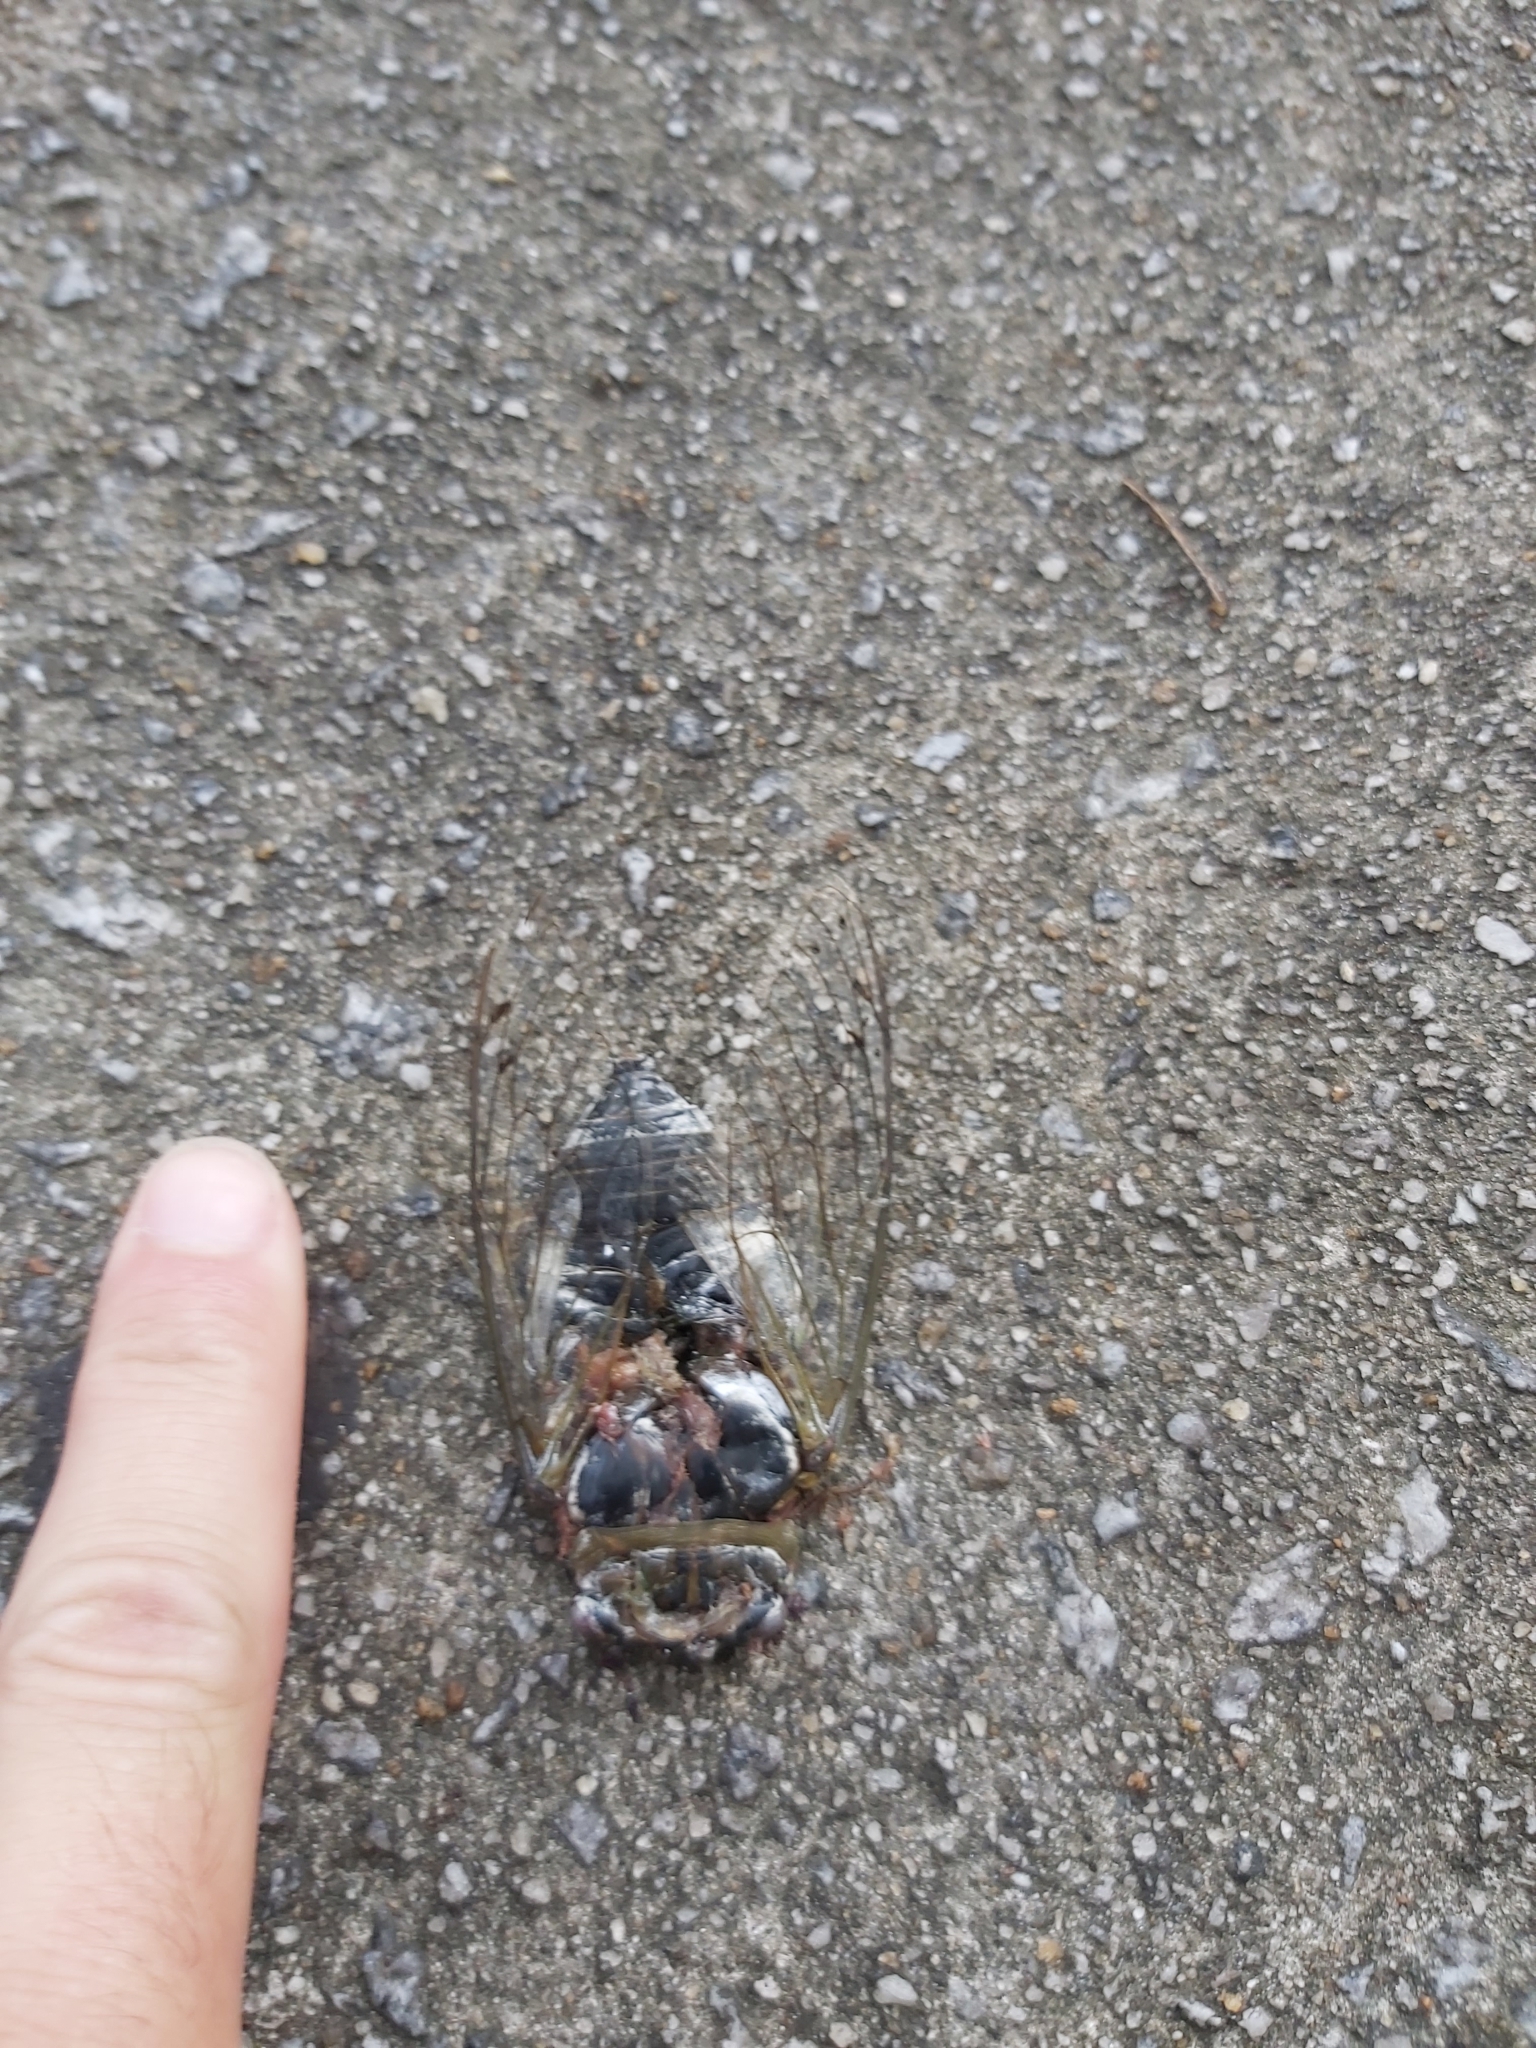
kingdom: Animalia
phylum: Arthropoda
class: Insecta
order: Hemiptera
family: Cicadidae
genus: Diceroprocta
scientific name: Diceroprocta grossa
